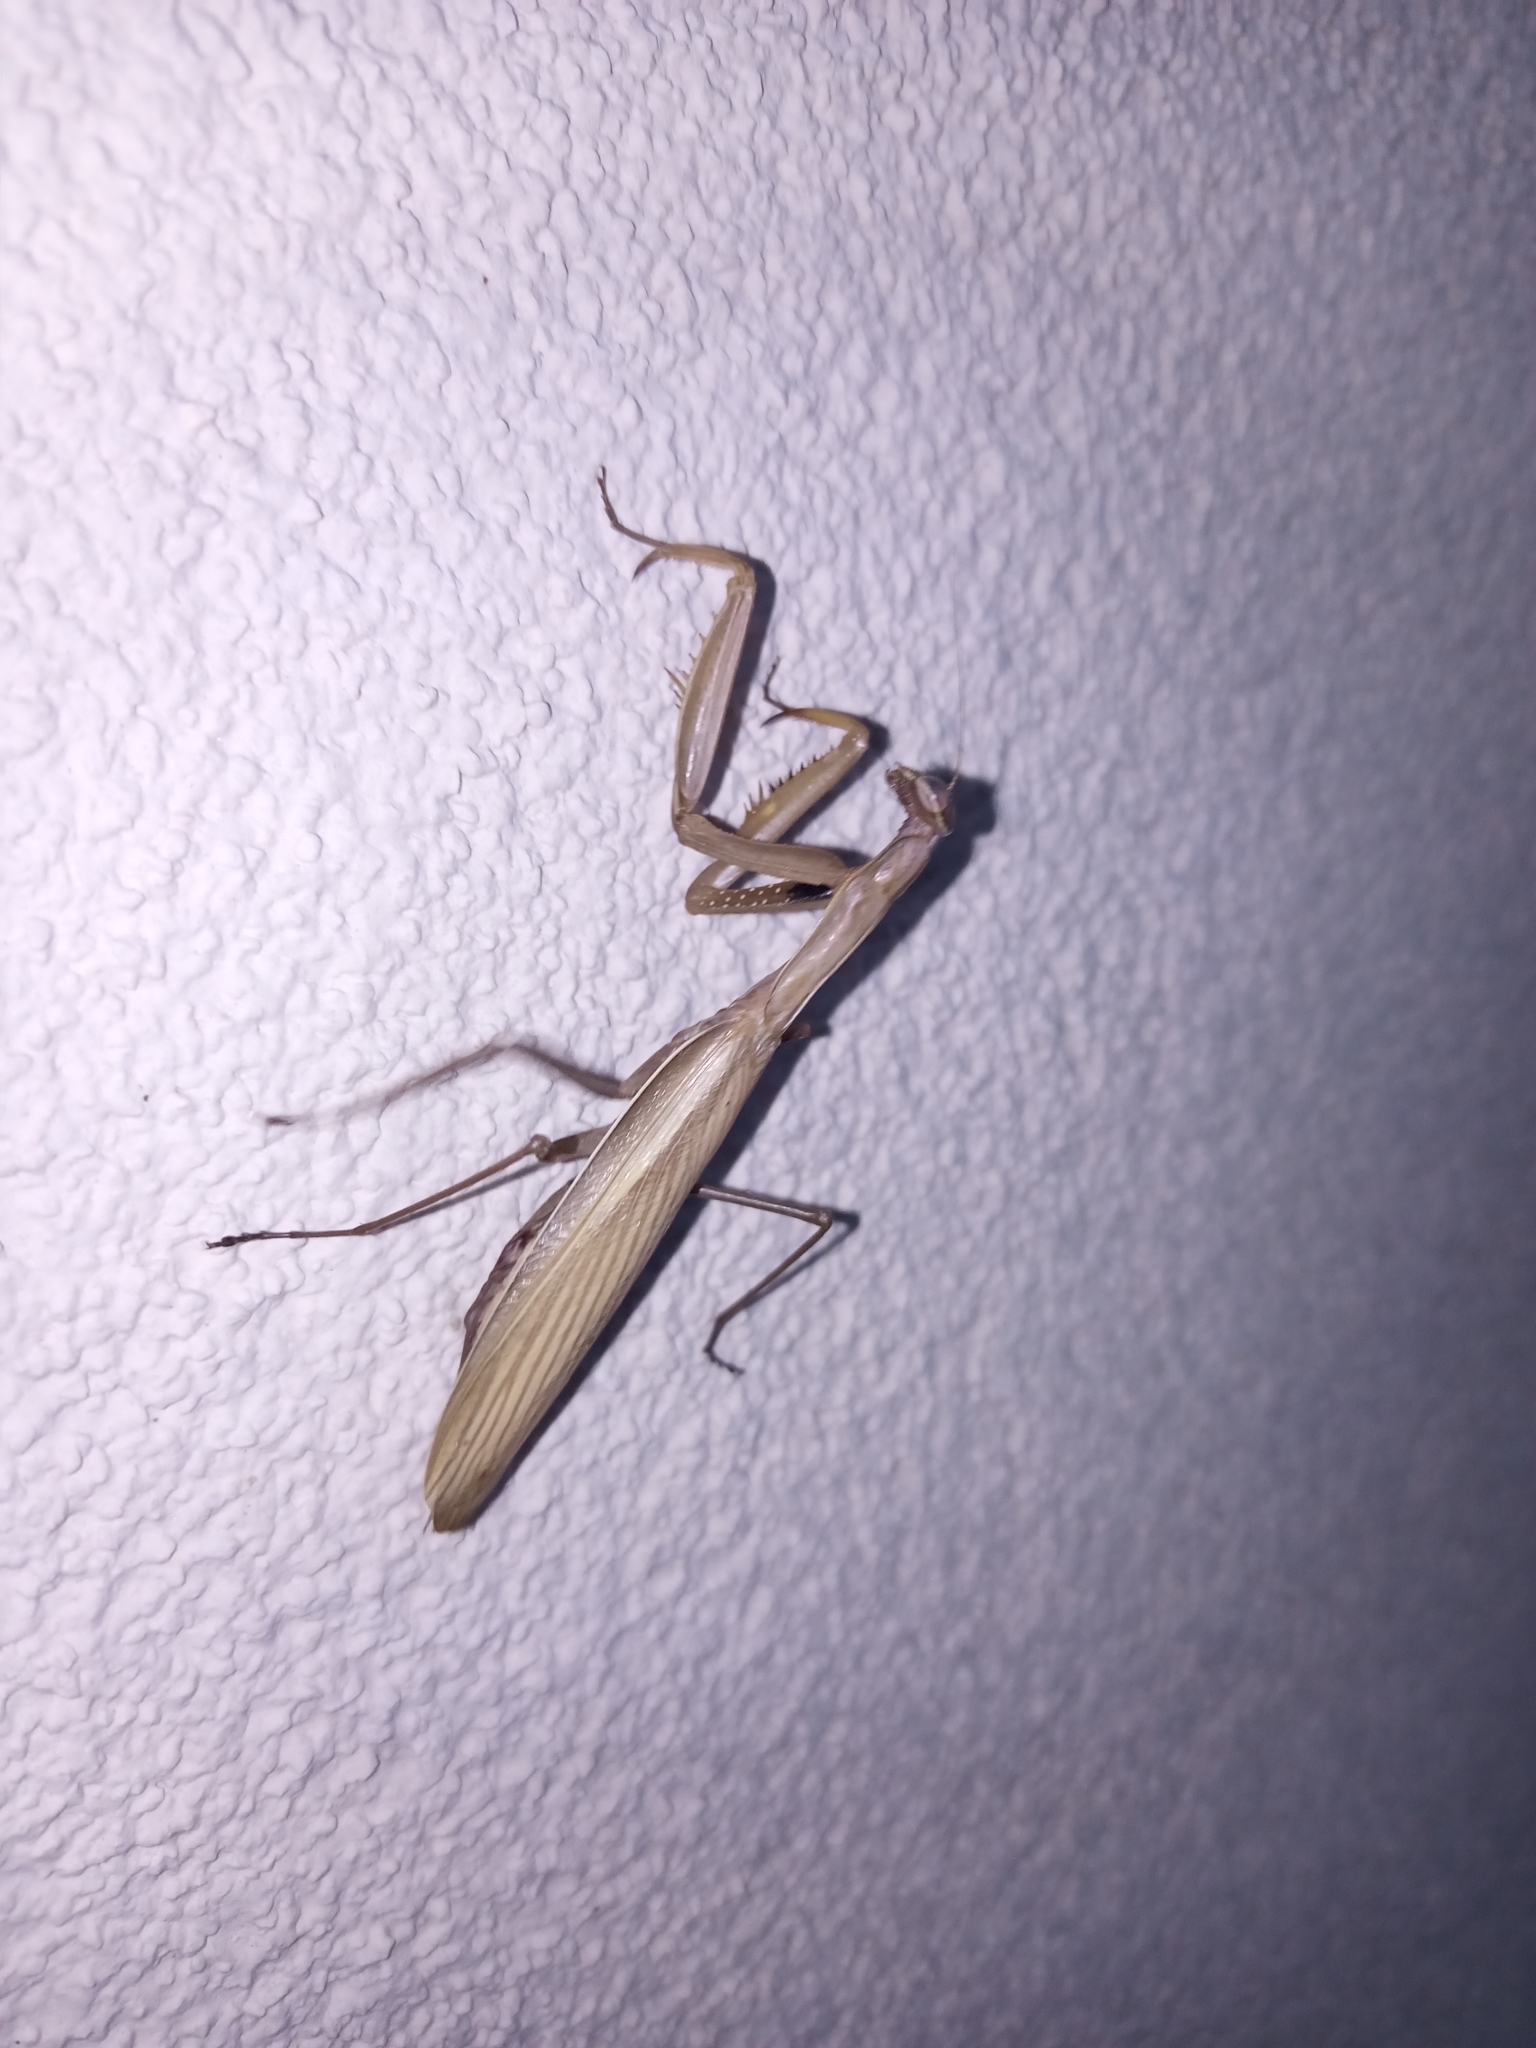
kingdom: Animalia
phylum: Arthropoda
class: Insecta
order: Mantodea
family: Mantidae
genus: Mantis
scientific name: Mantis religiosa
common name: Praying mantis
